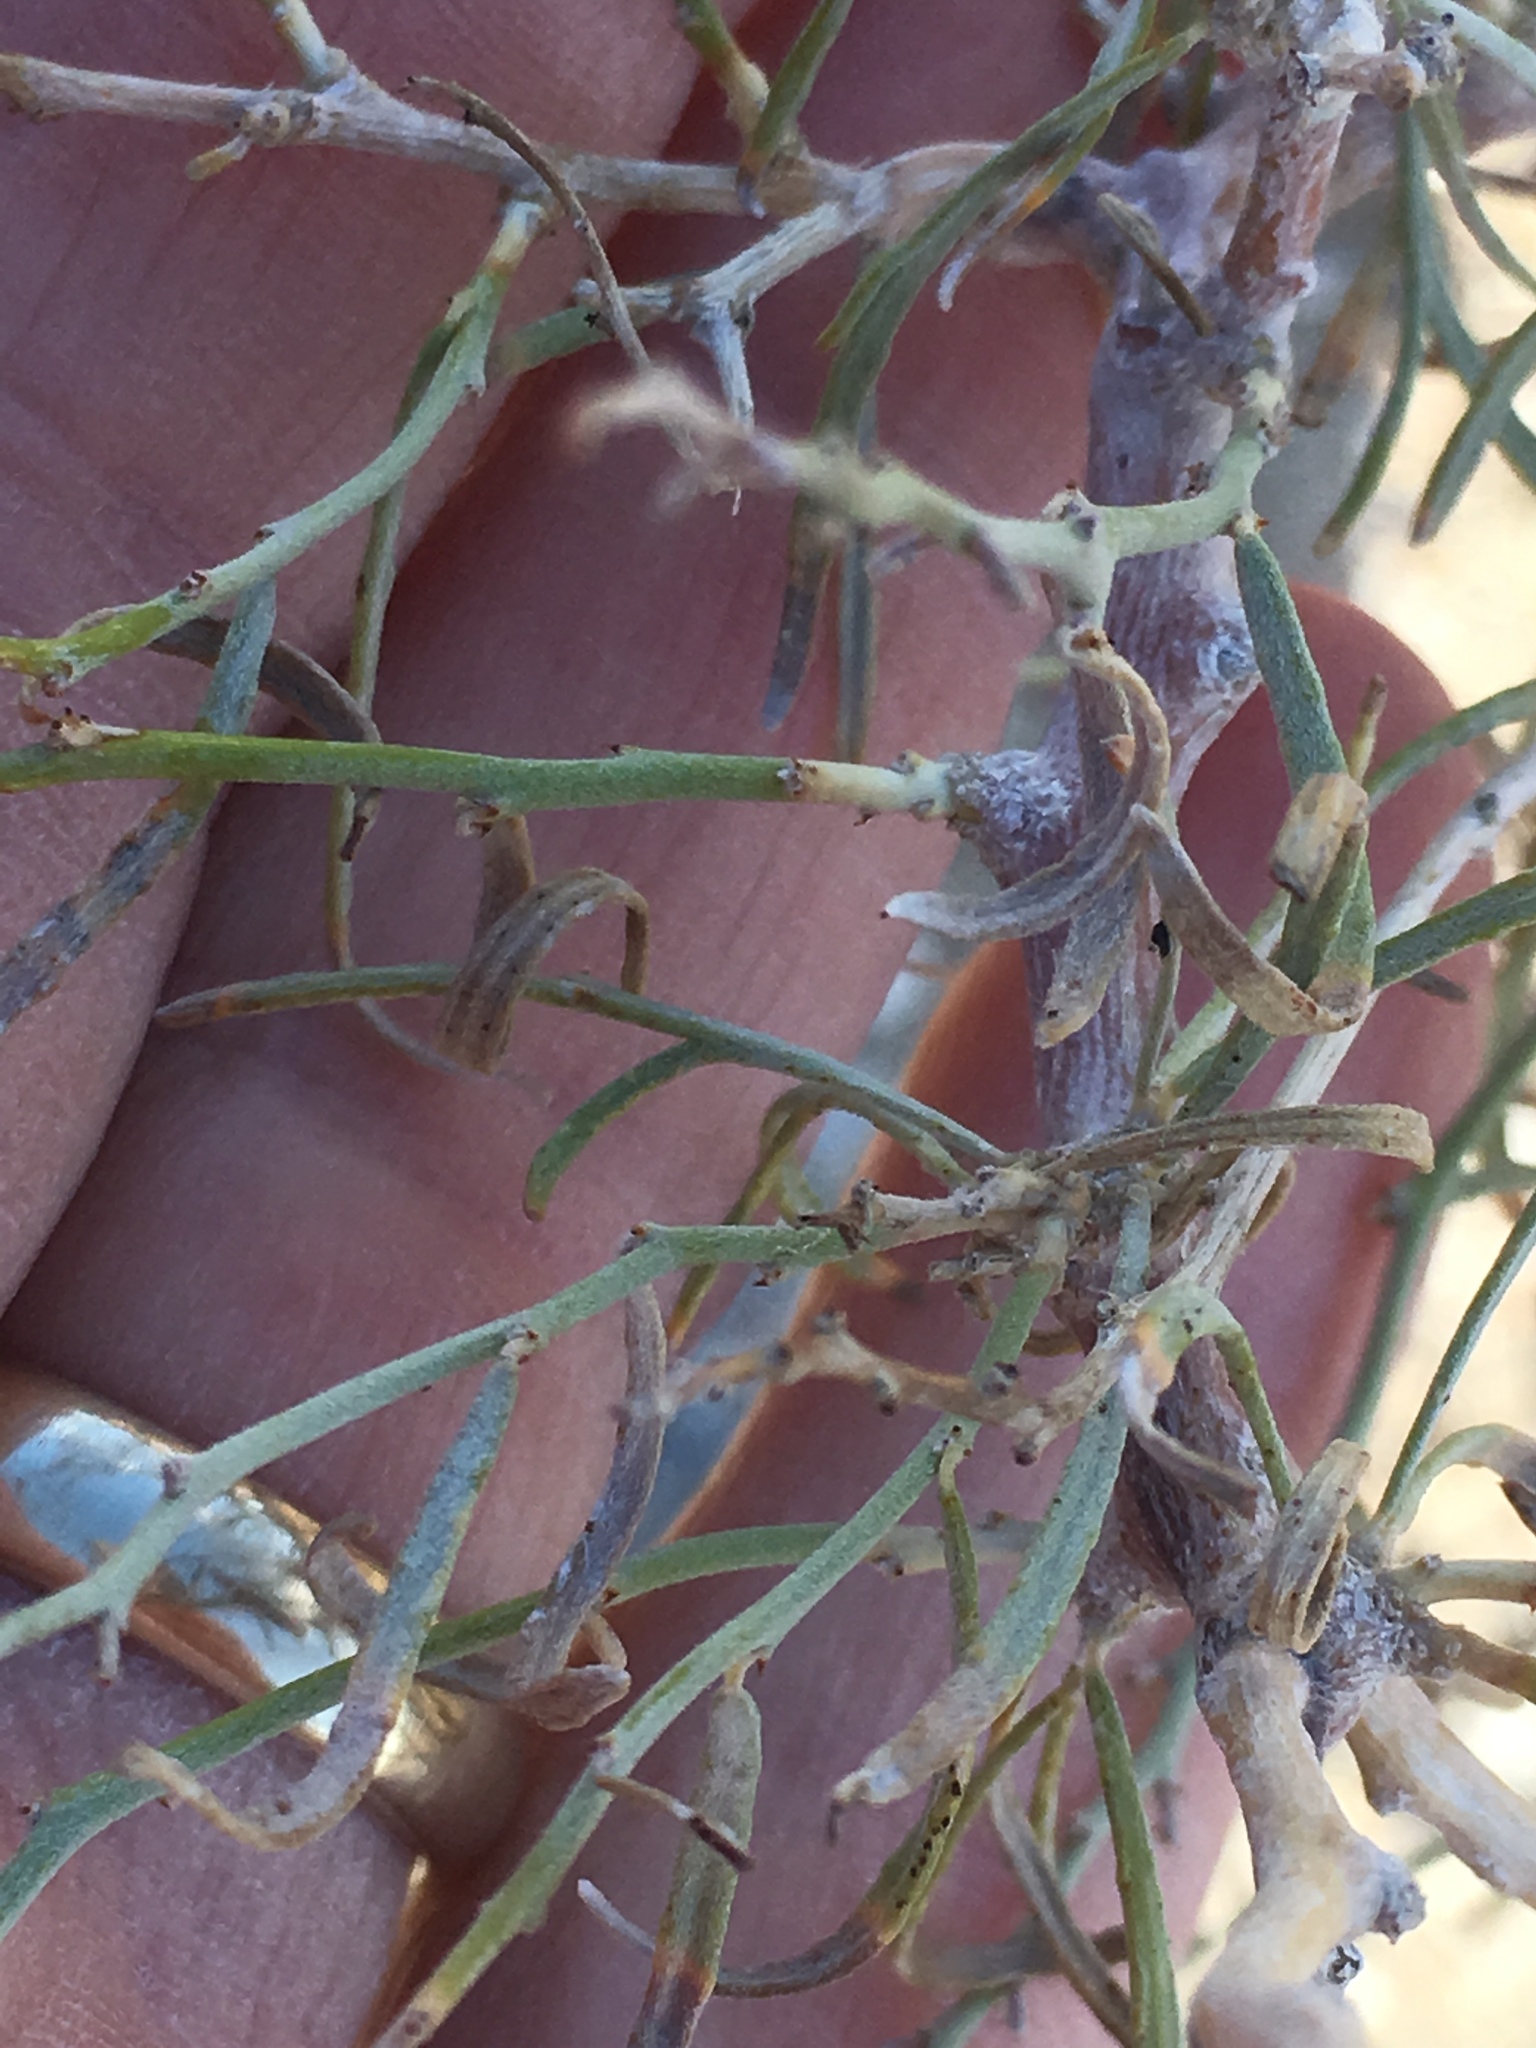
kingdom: Plantae
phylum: Tracheophyta
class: Magnoliopsida
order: Fabales
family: Fabaceae
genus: Psorothamnus
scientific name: Psorothamnus schottii
